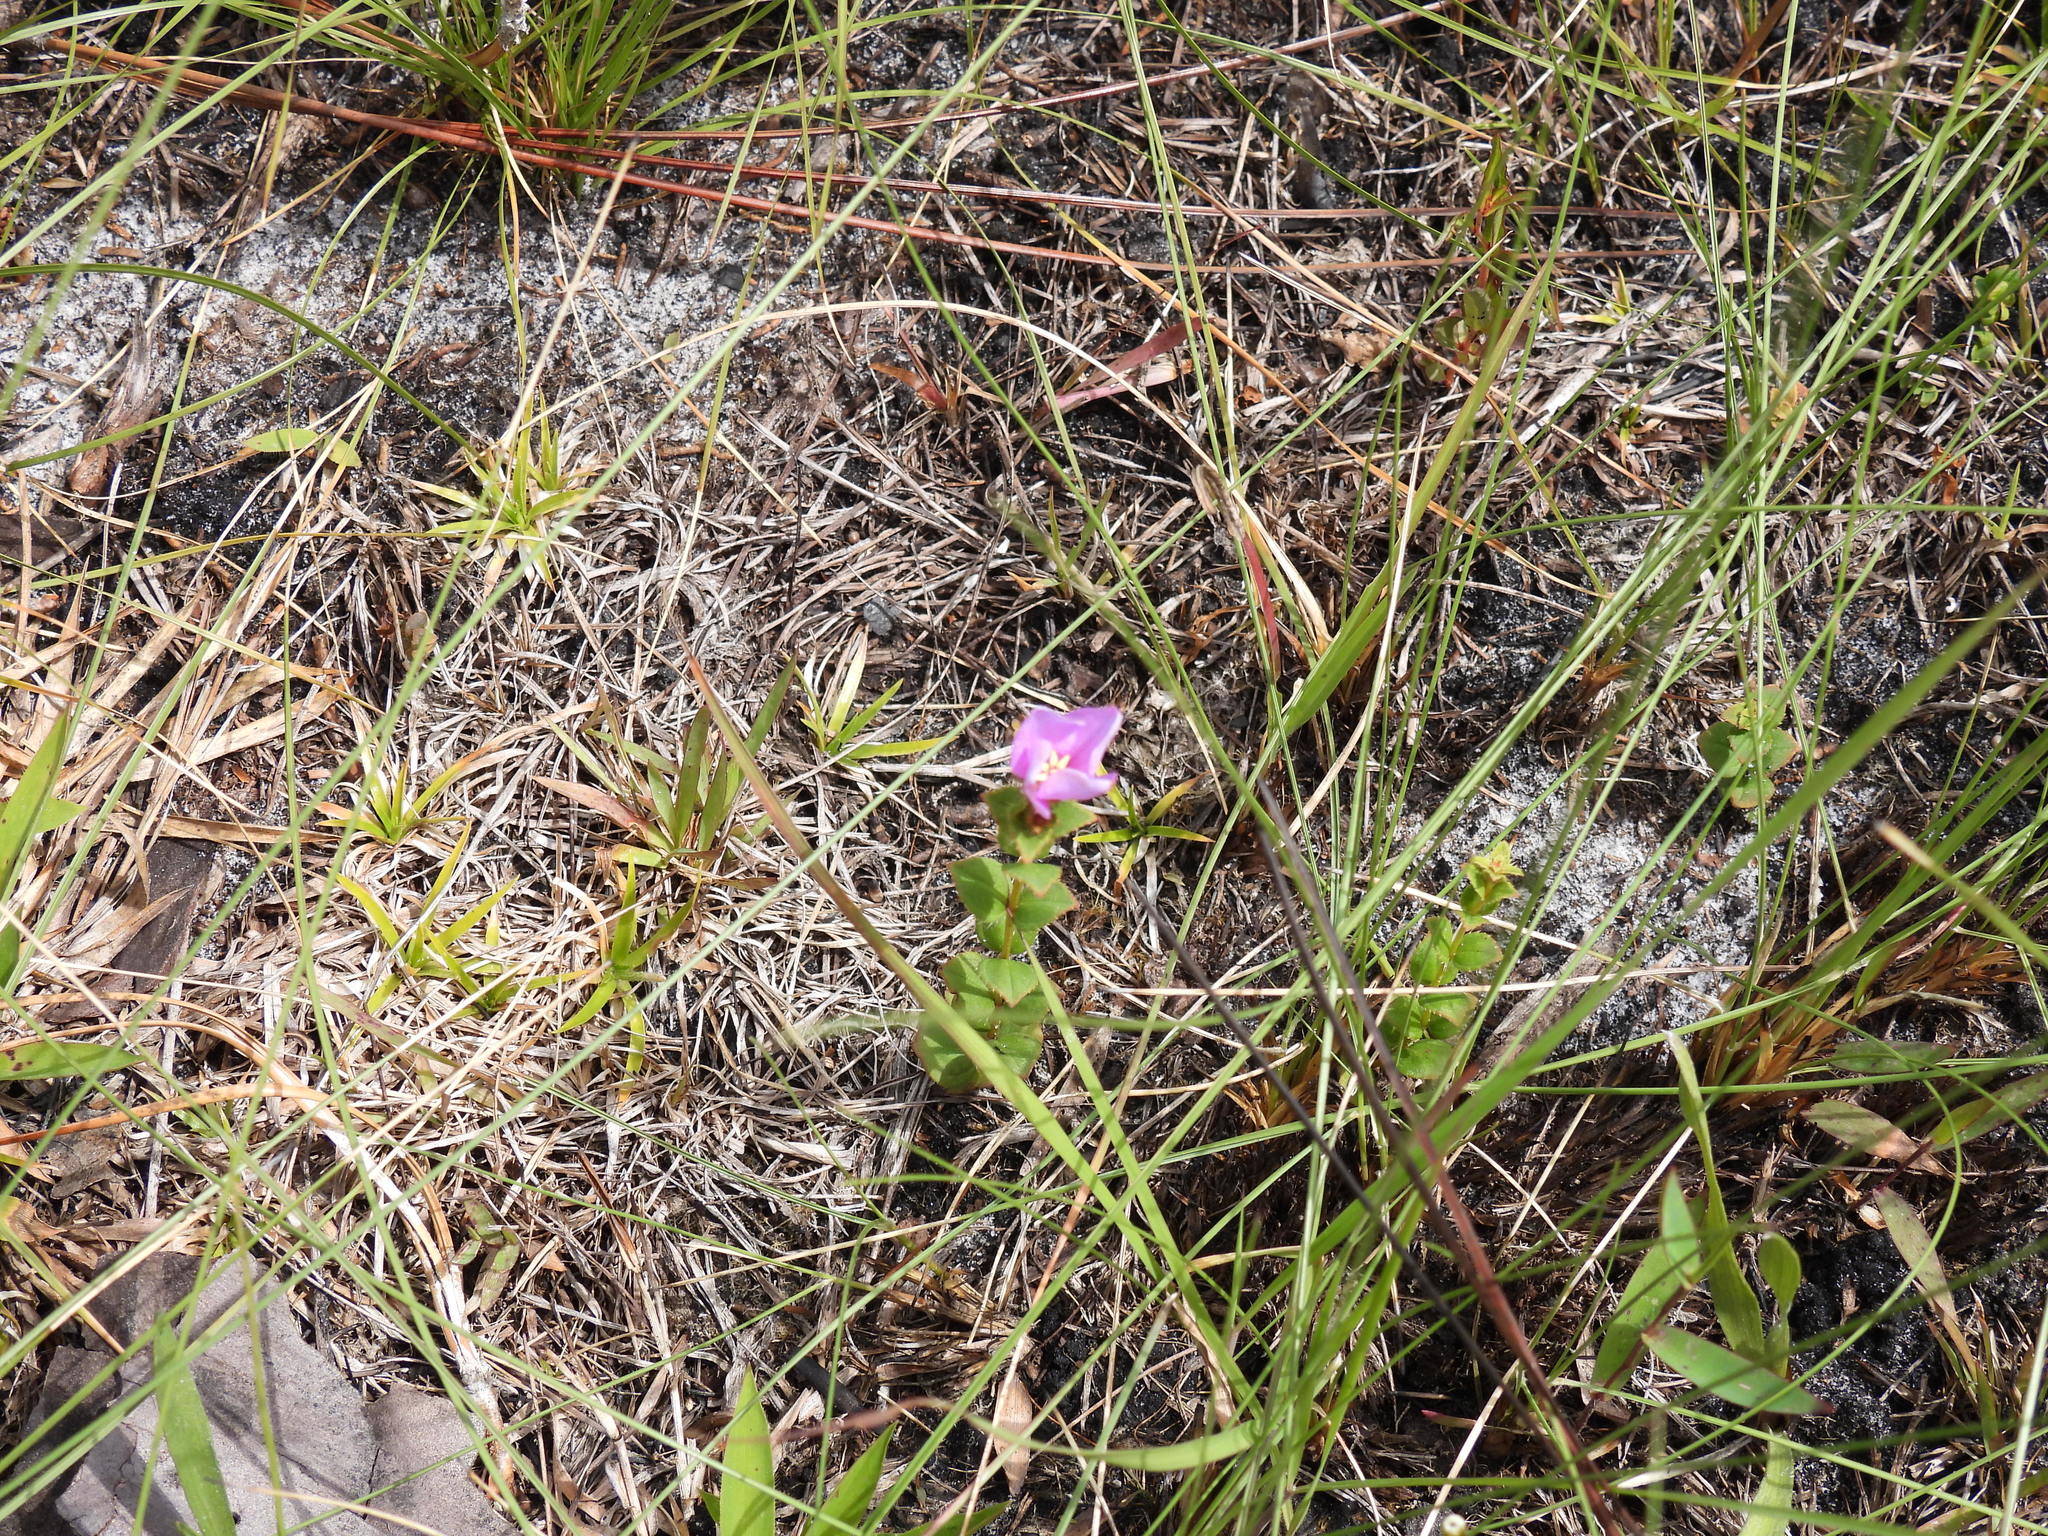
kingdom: Plantae
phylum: Tracheophyta
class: Magnoliopsida
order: Myrtales
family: Melastomataceae
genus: Rhexia
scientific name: Rhexia petiolata
